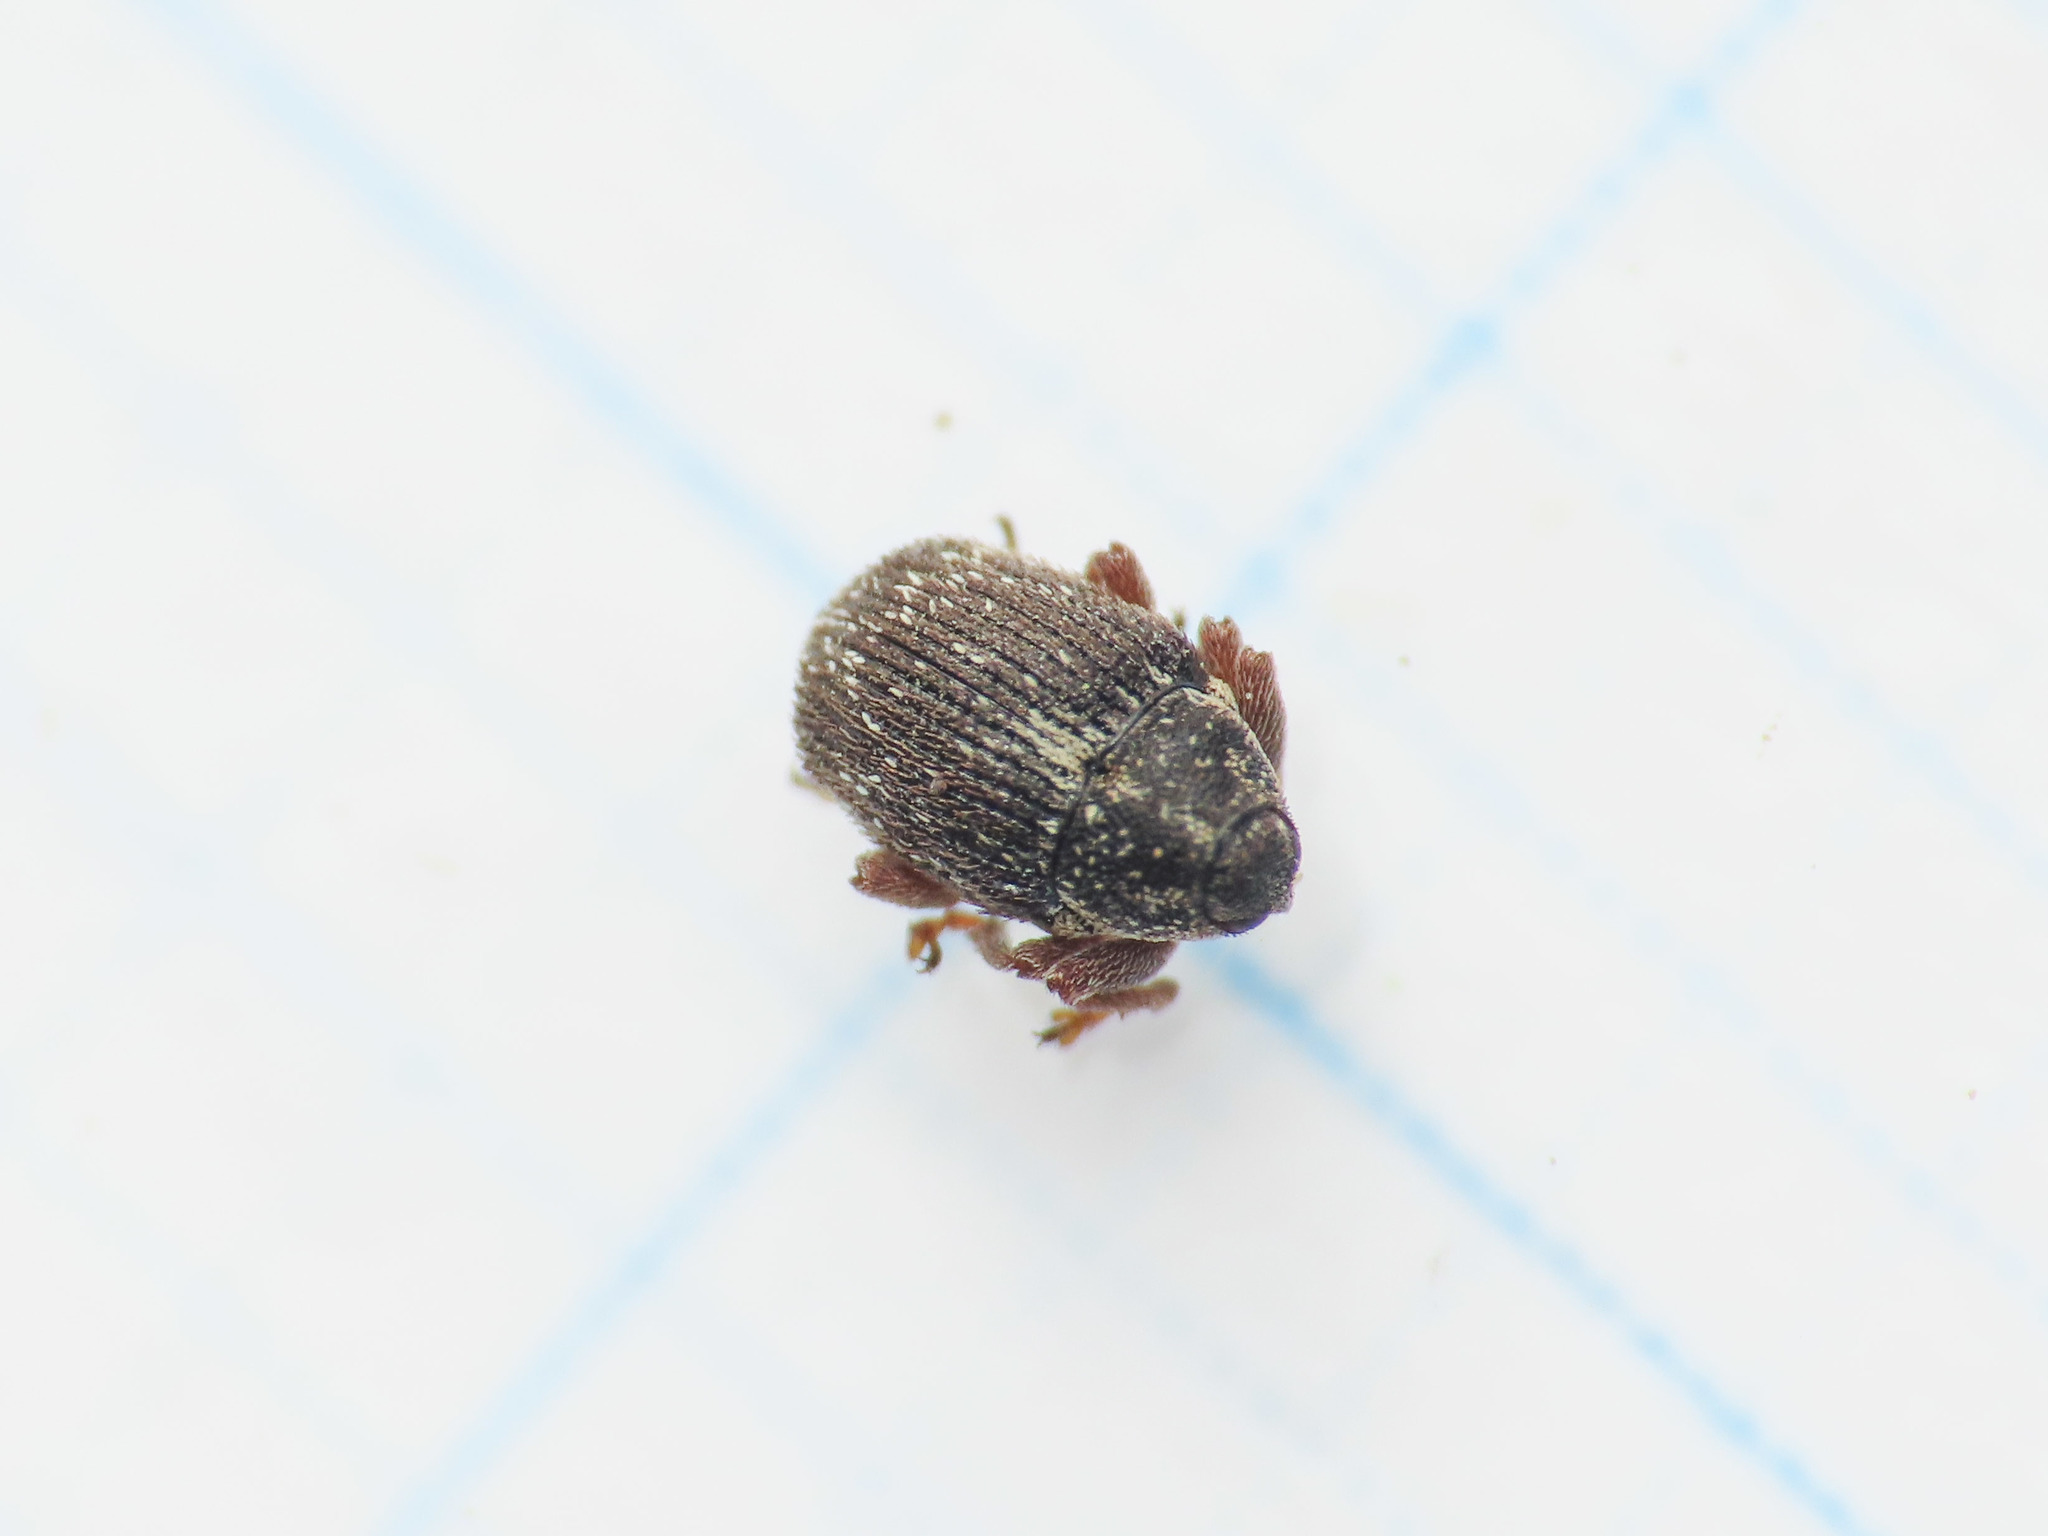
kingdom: Animalia
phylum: Arthropoda
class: Insecta
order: Coleoptera
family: Curculionidae
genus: Oprohinus
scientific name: Oprohinus consputus
